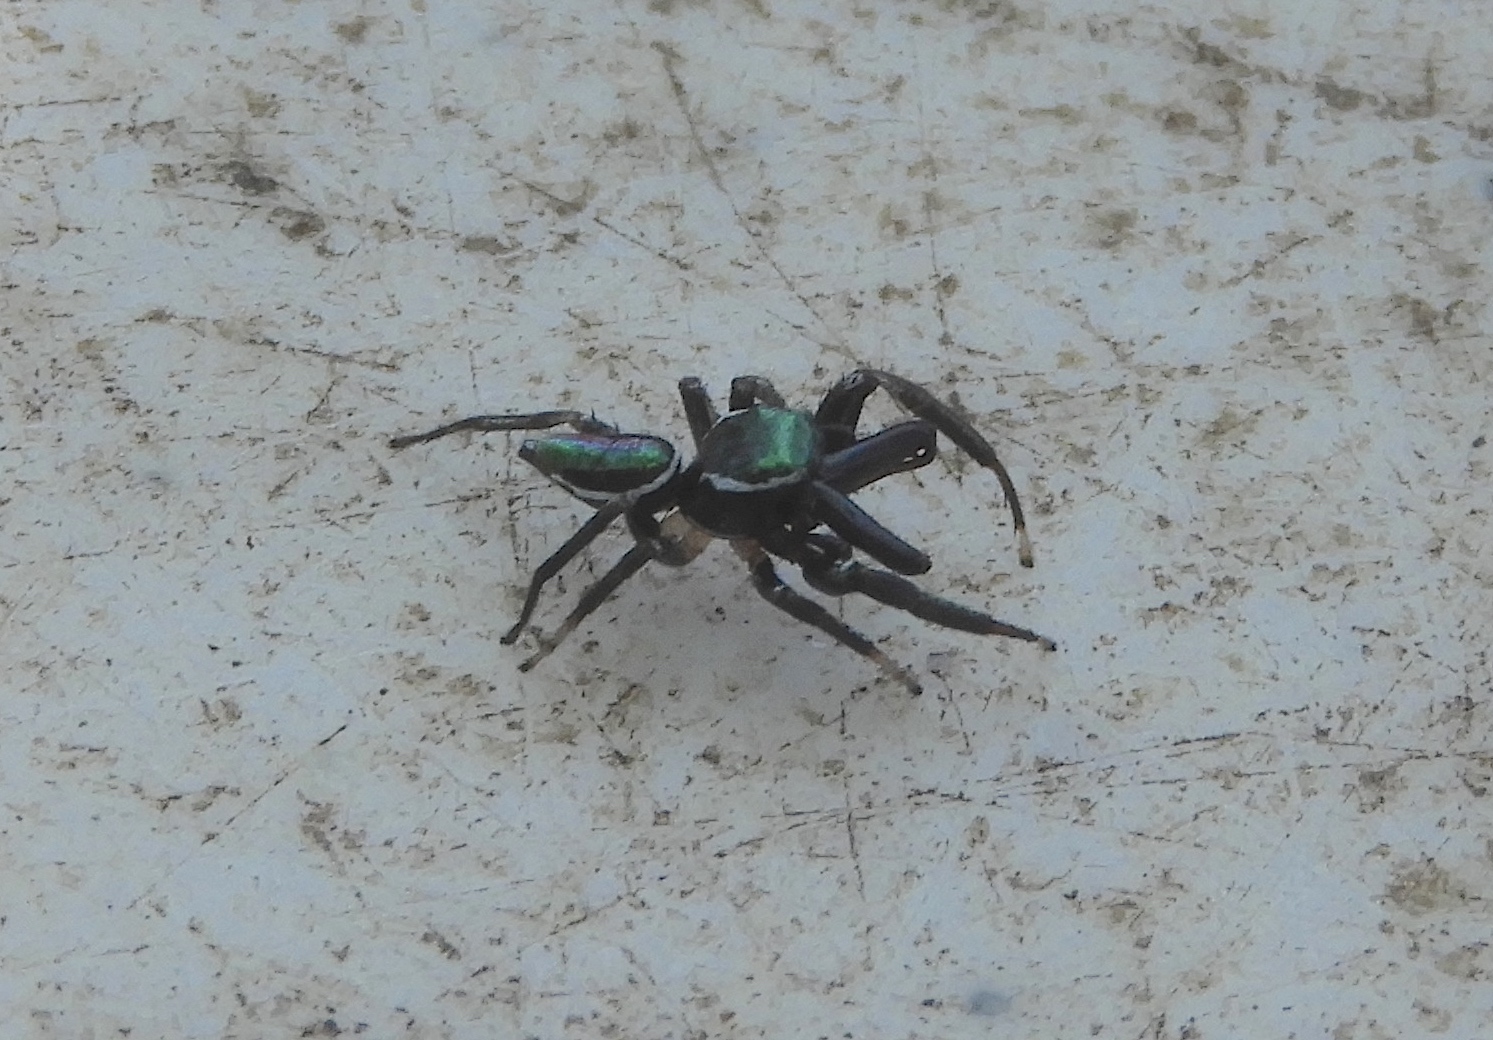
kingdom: Animalia
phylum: Arthropoda
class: Arachnida
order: Araneae
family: Salticidae
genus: Messua
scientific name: Messua
